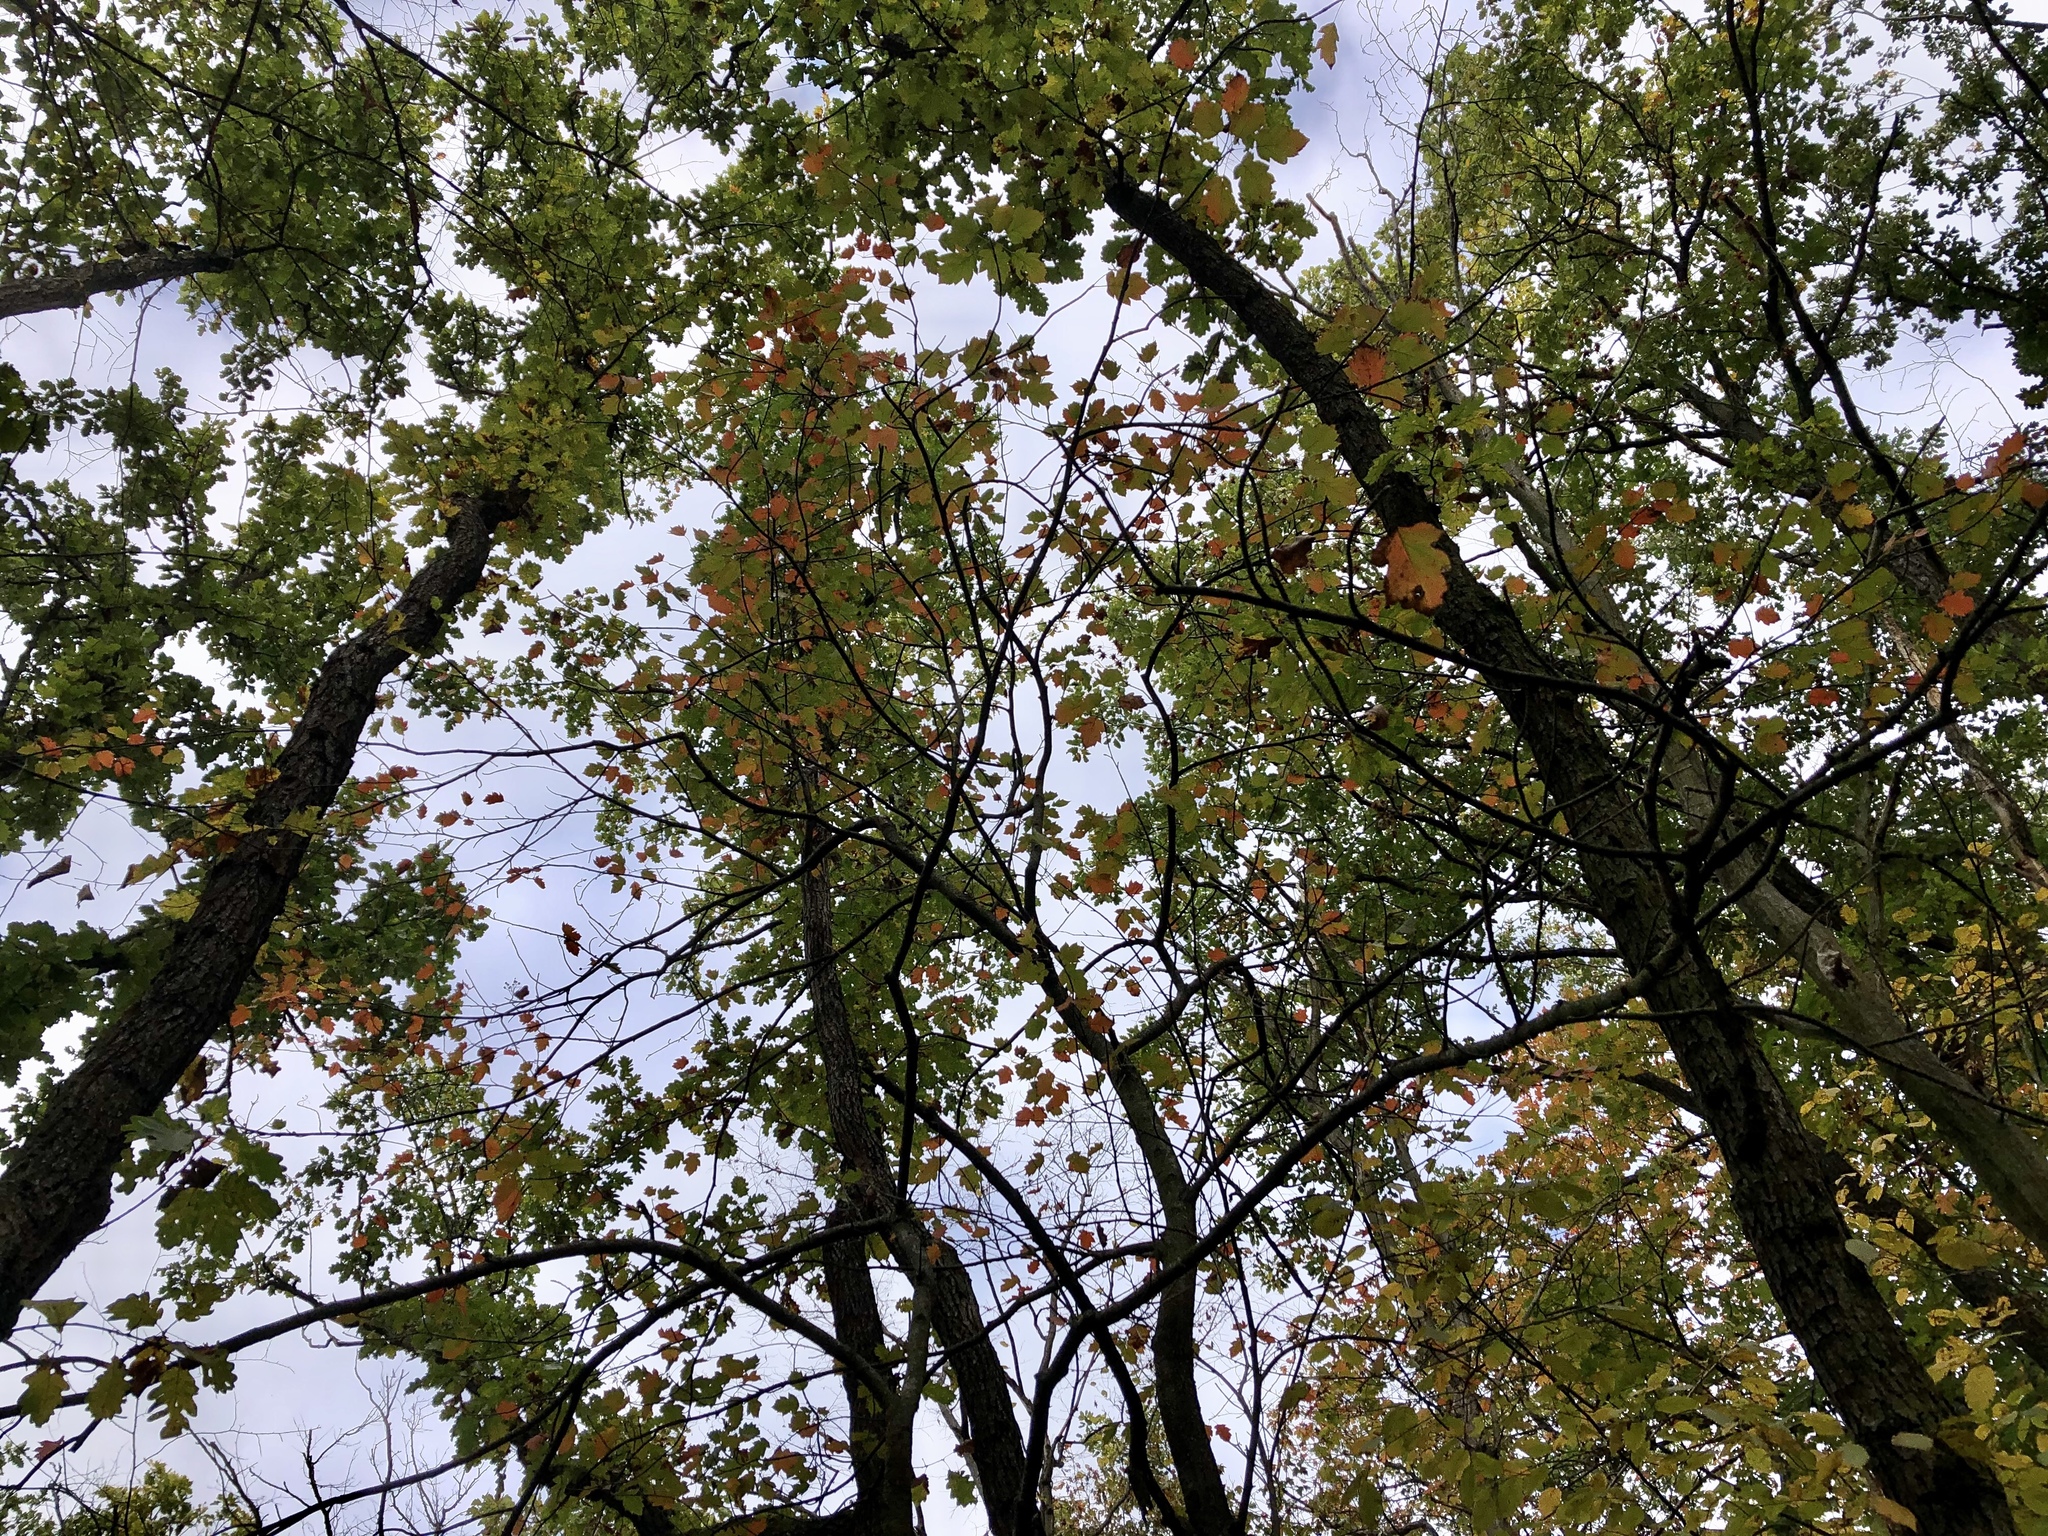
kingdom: Plantae
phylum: Tracheophyta
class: Magnoliopsida
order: Rosales
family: Rosaceae
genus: Torminalis
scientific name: Torminalis glaberrima
